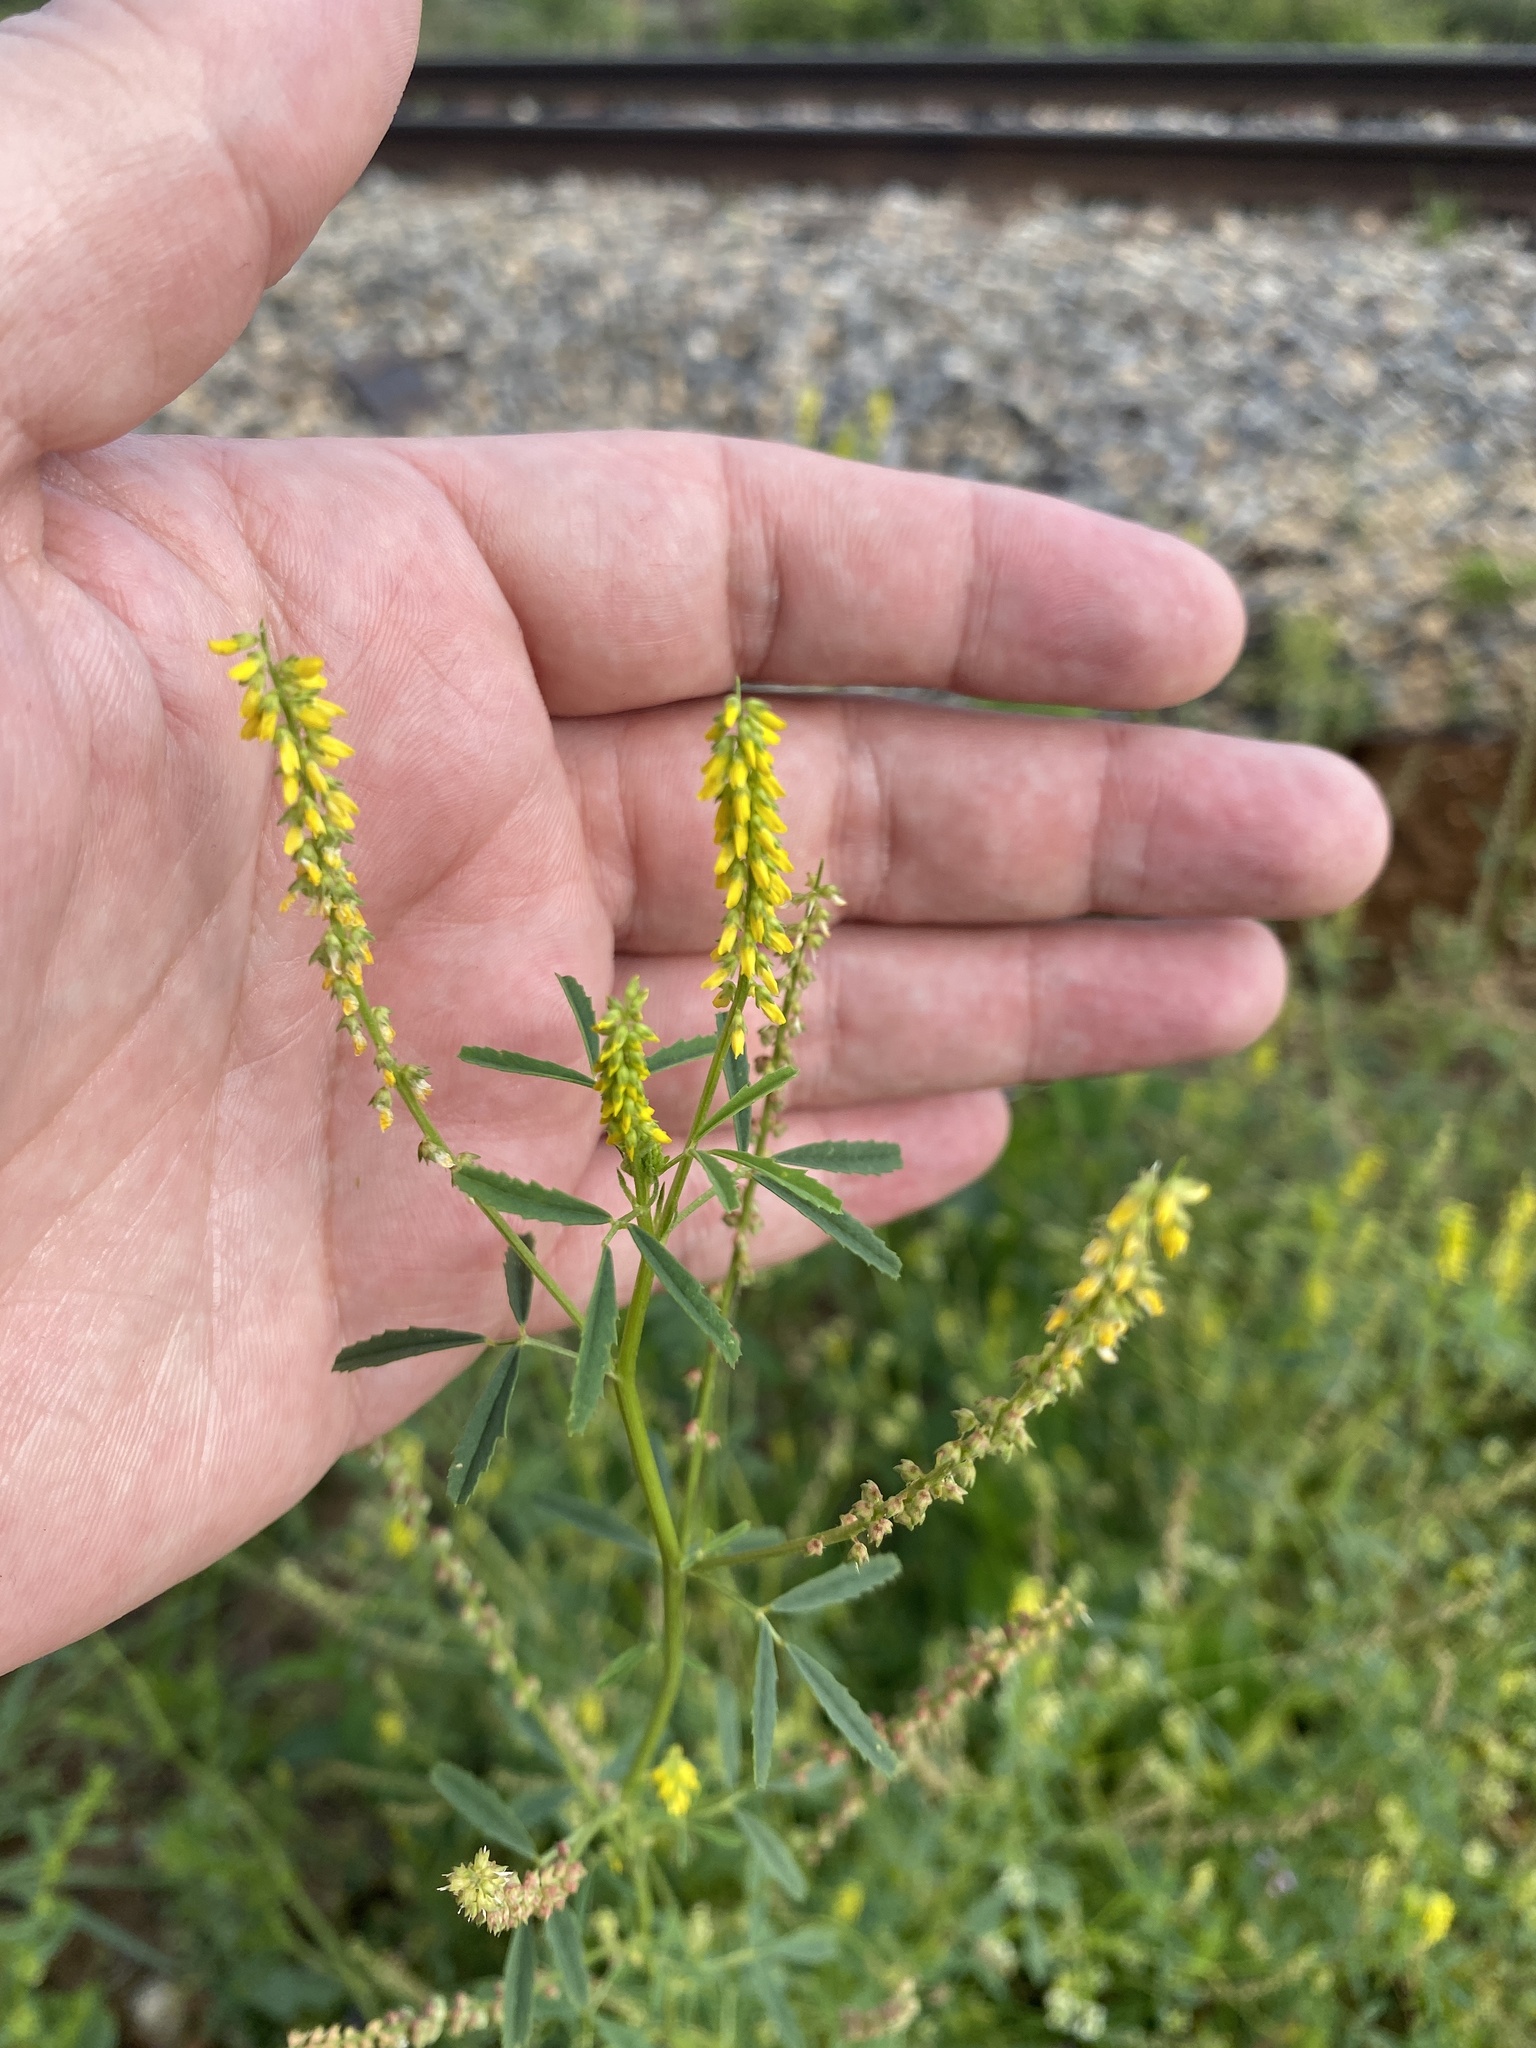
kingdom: Plantae
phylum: Tracheophyta
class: Magnoliopsida
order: Fabales
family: Fabaceae
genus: Melilotus
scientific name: Melilotus indicus
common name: Small melilot
